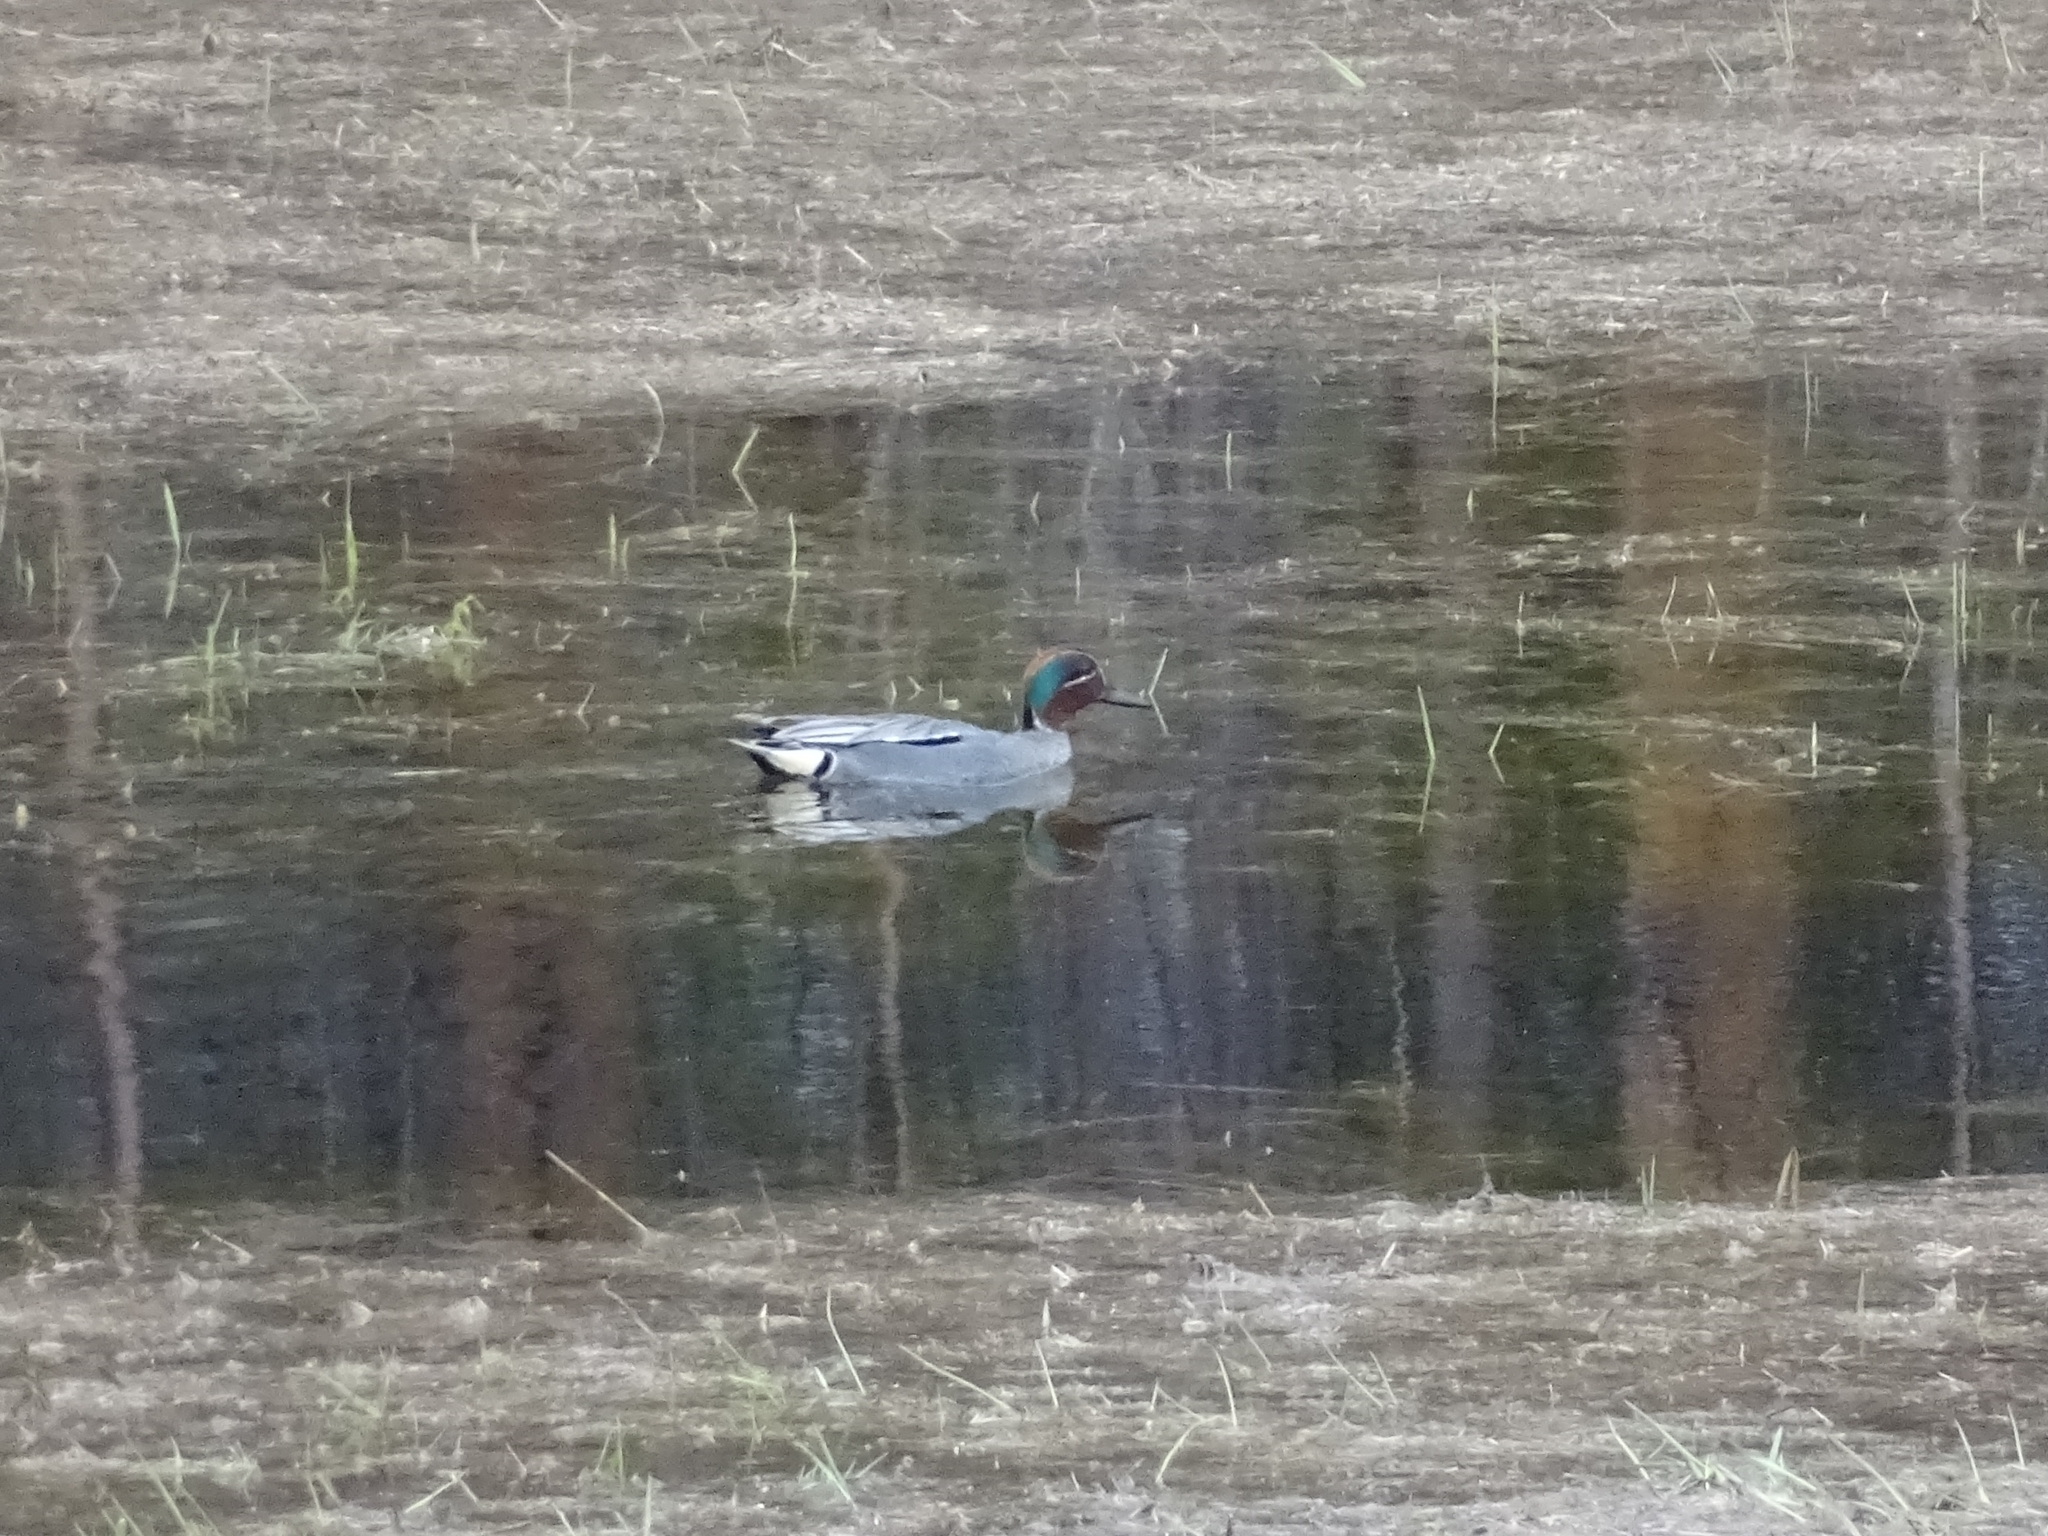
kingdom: Animalia
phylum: Chordata
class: Aves
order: Anseriformes
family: Anatidae
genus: Anas
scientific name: Anas crecca
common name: Eurasian teal
